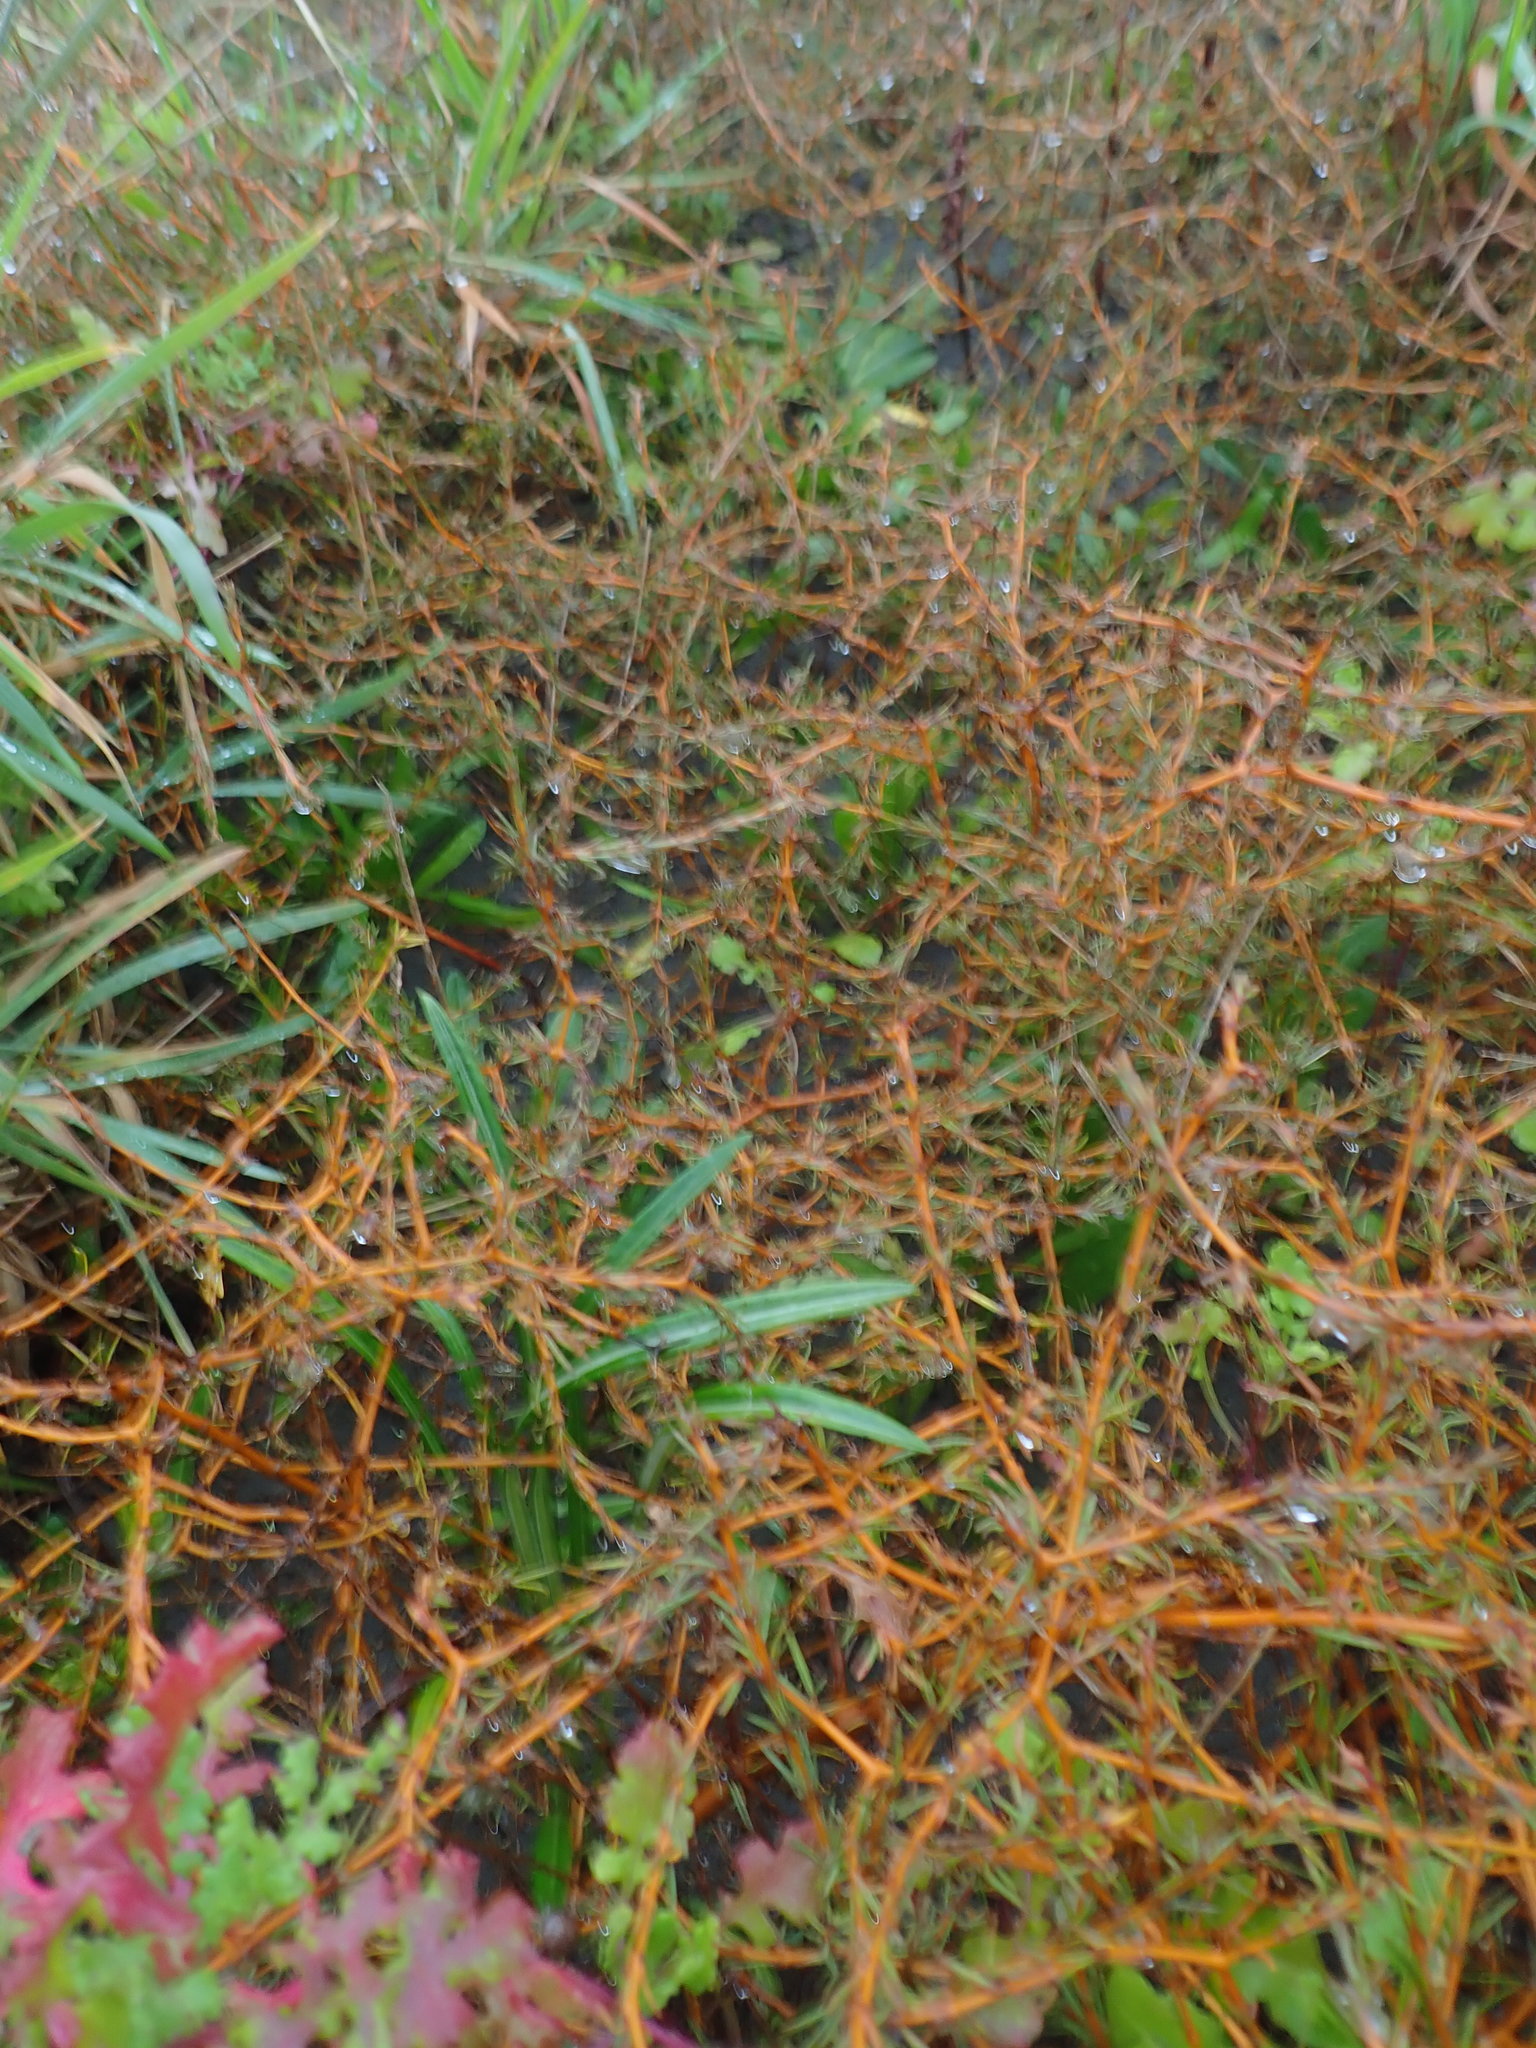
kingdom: Plantae
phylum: Tracheophyta
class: Magnoliopsida
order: Gentianales
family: Rubiaceae
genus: Coprosma
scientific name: Coprosma acerosa
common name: Sand coprosma
